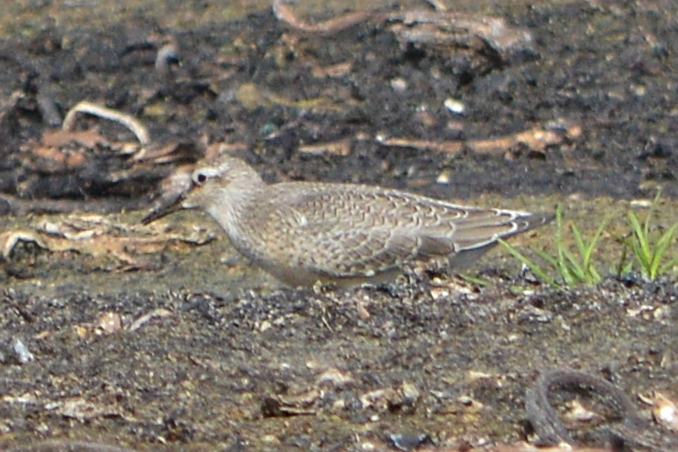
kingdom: Animalia
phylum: Chordata
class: Aves
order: Charadriiformes
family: Scolopacidae
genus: Calidris
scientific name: Calidris canutus
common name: Red knot
